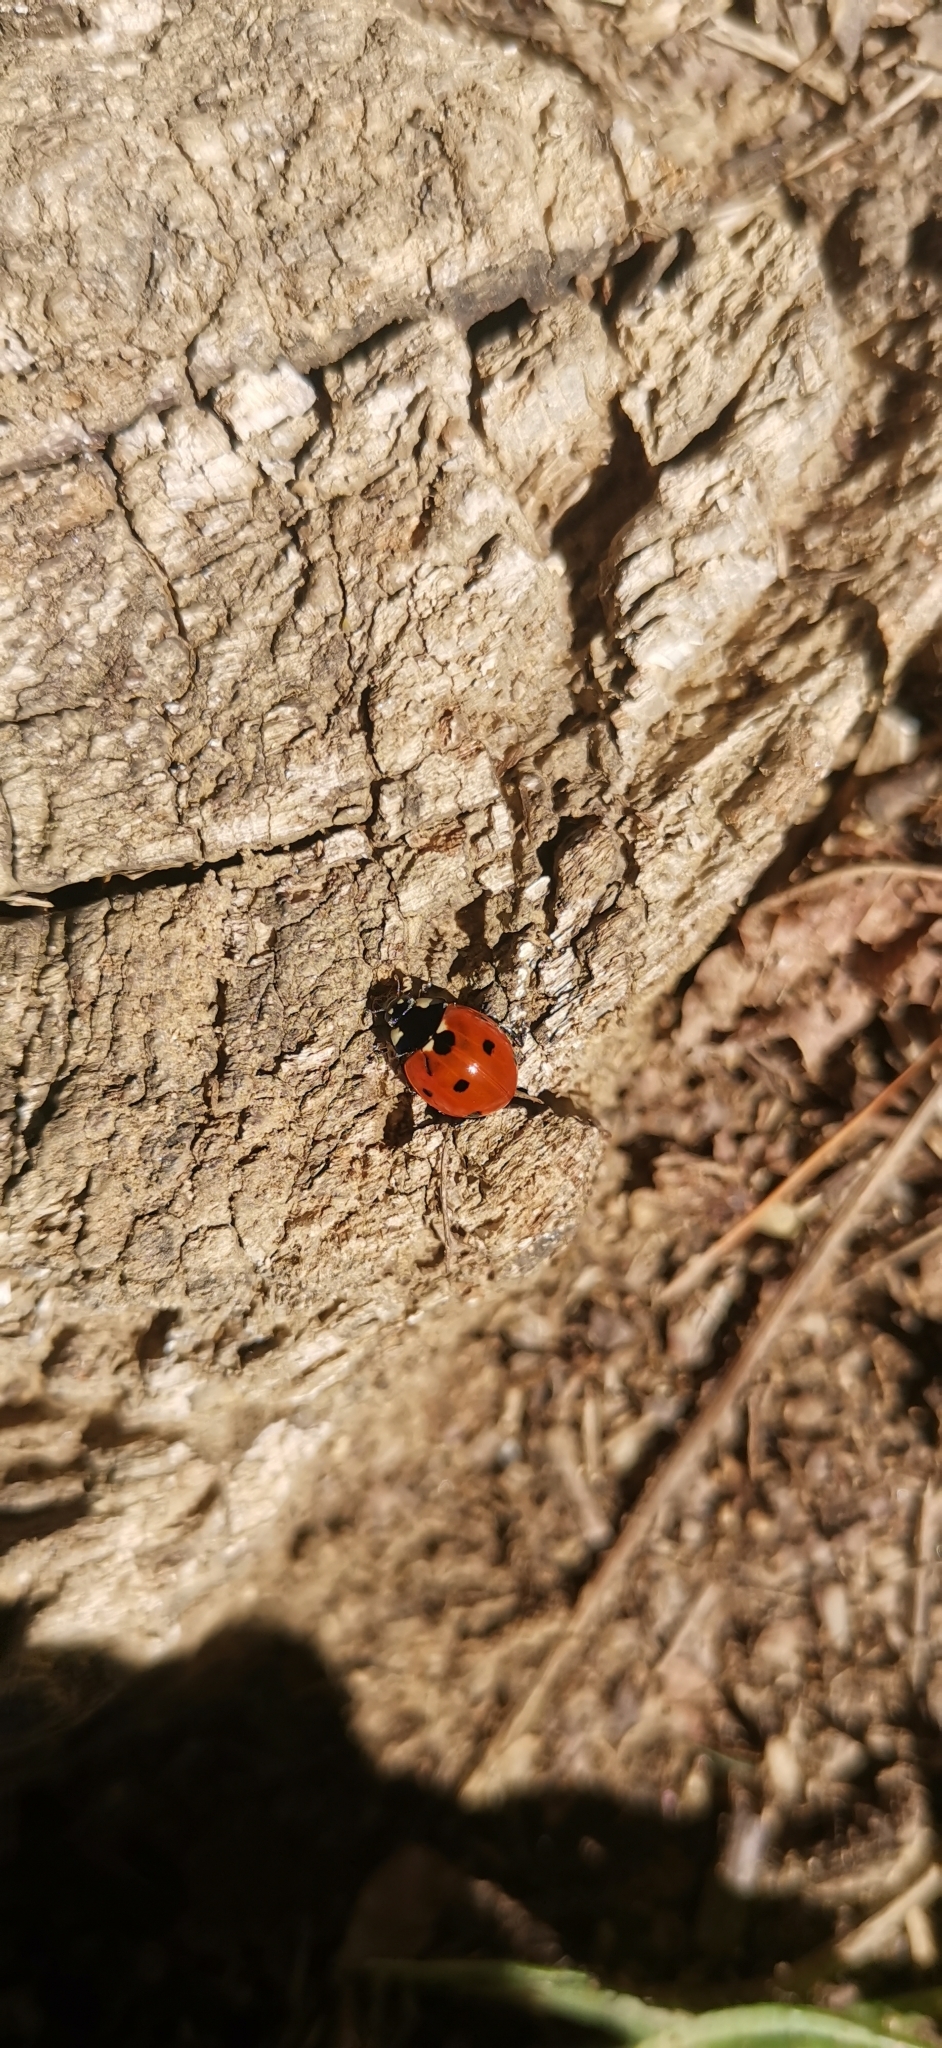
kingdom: Animalia
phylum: Arthropoda
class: Insecta
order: Coleoptera
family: Coccinellidae
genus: Coccinella
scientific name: Coccinella septempunctata
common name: Sevenspotted lady beetle
